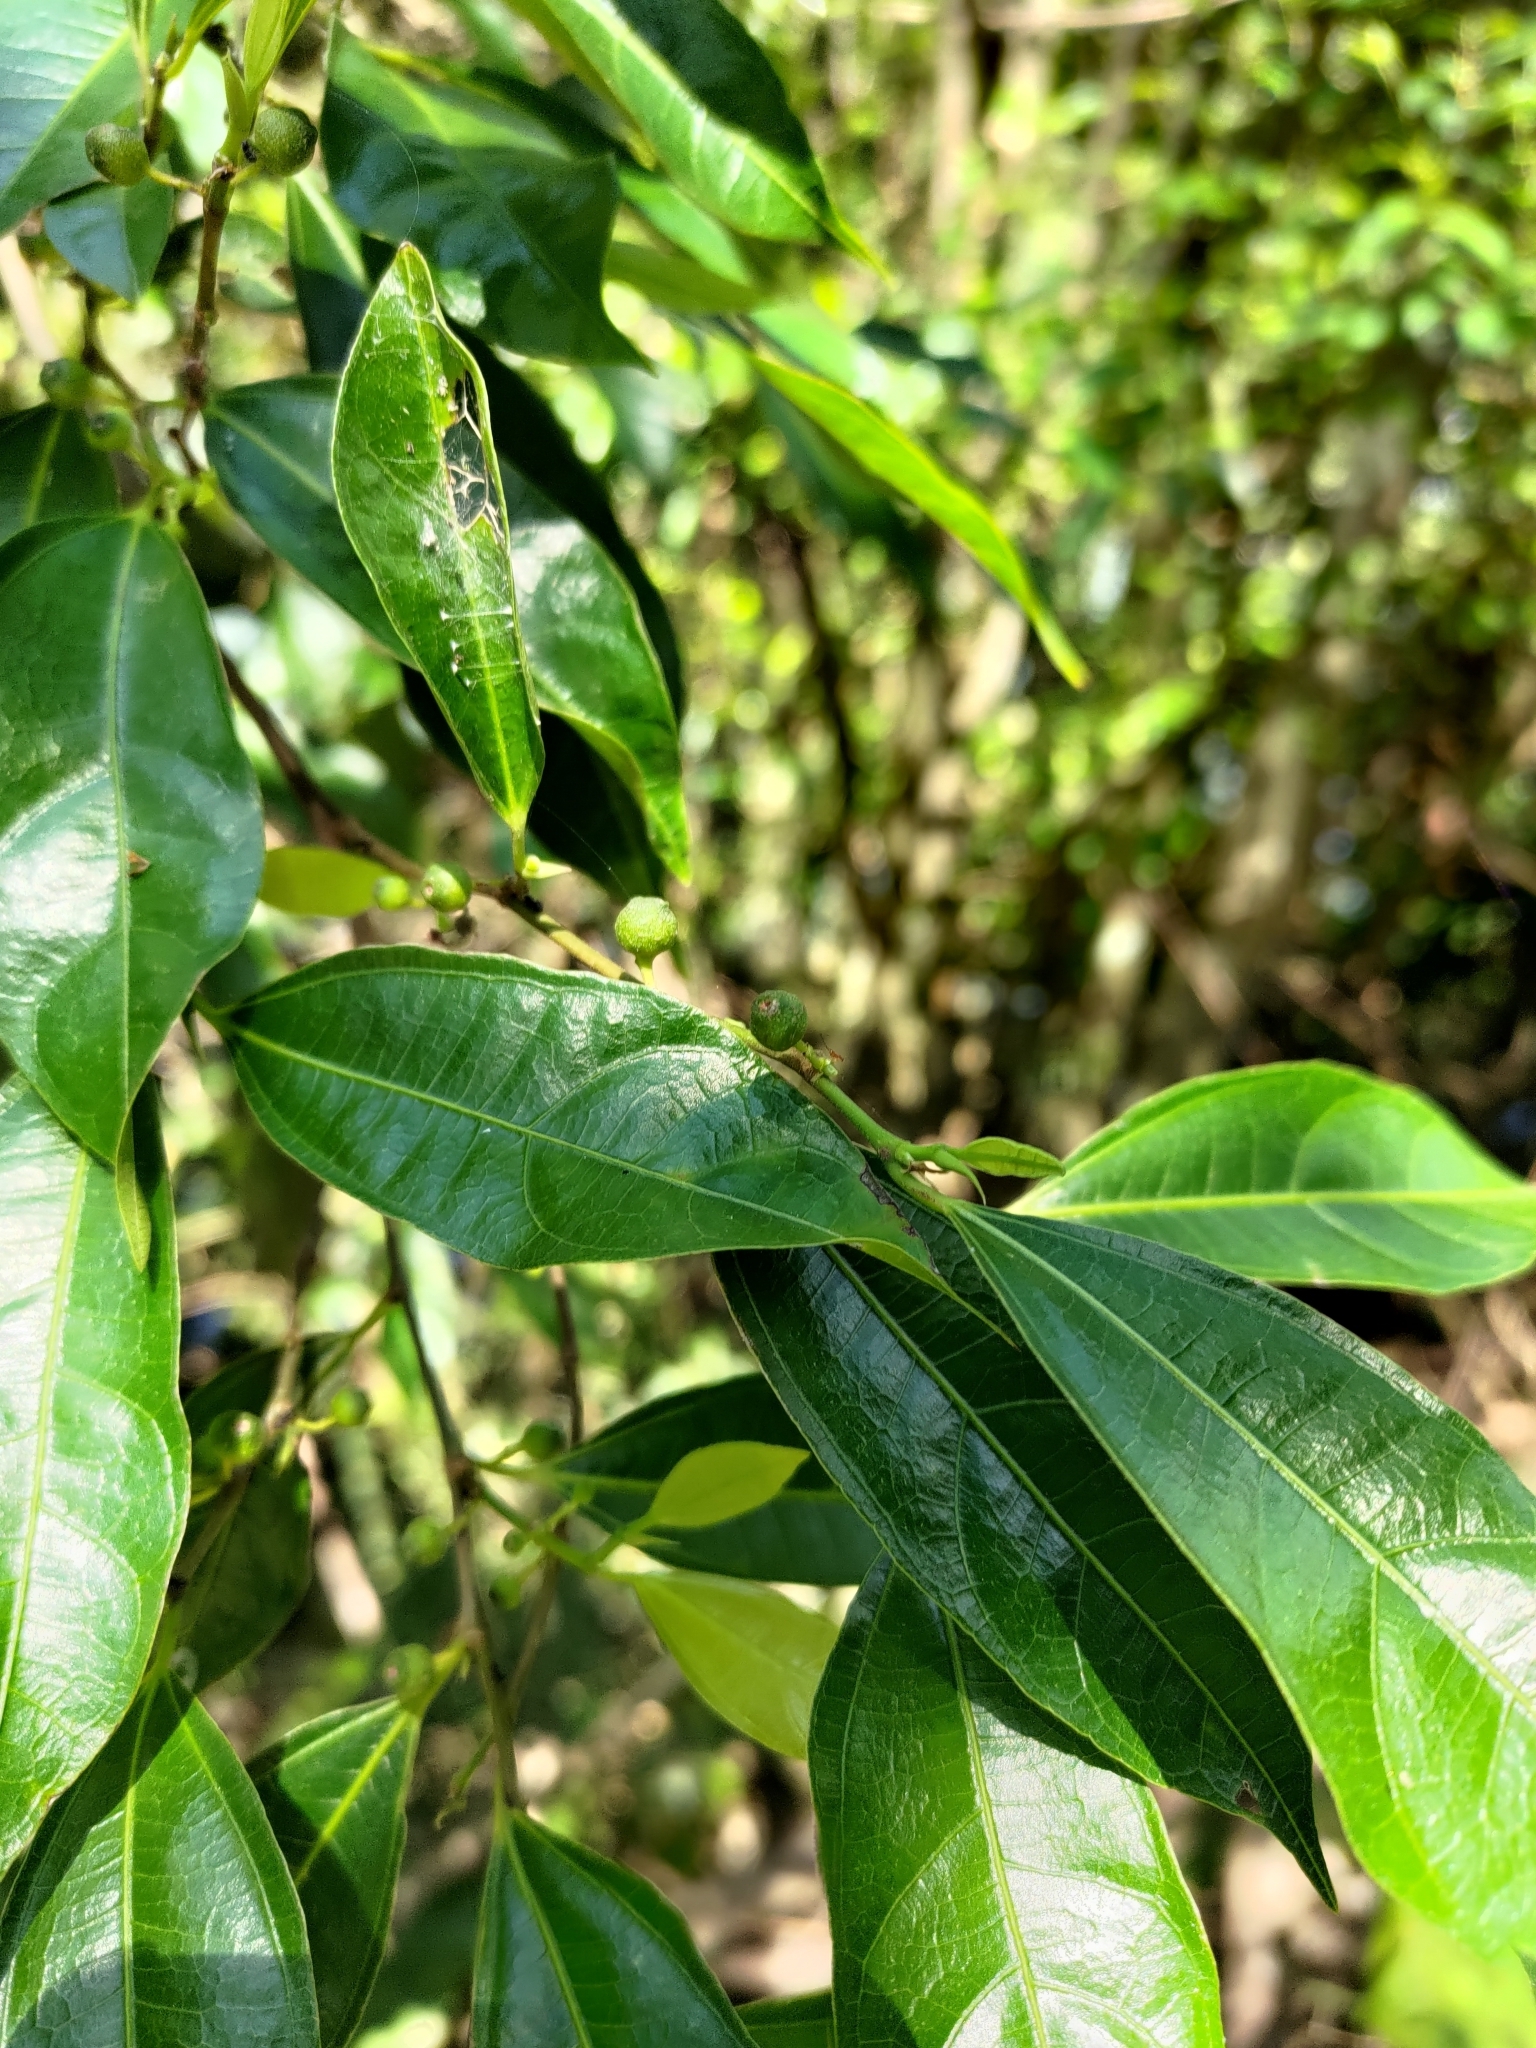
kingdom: Plantae
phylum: Tracheophyta
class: Magnoliopsida
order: Rosales
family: Moraceae
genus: Ficus
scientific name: Ficus ampelos
